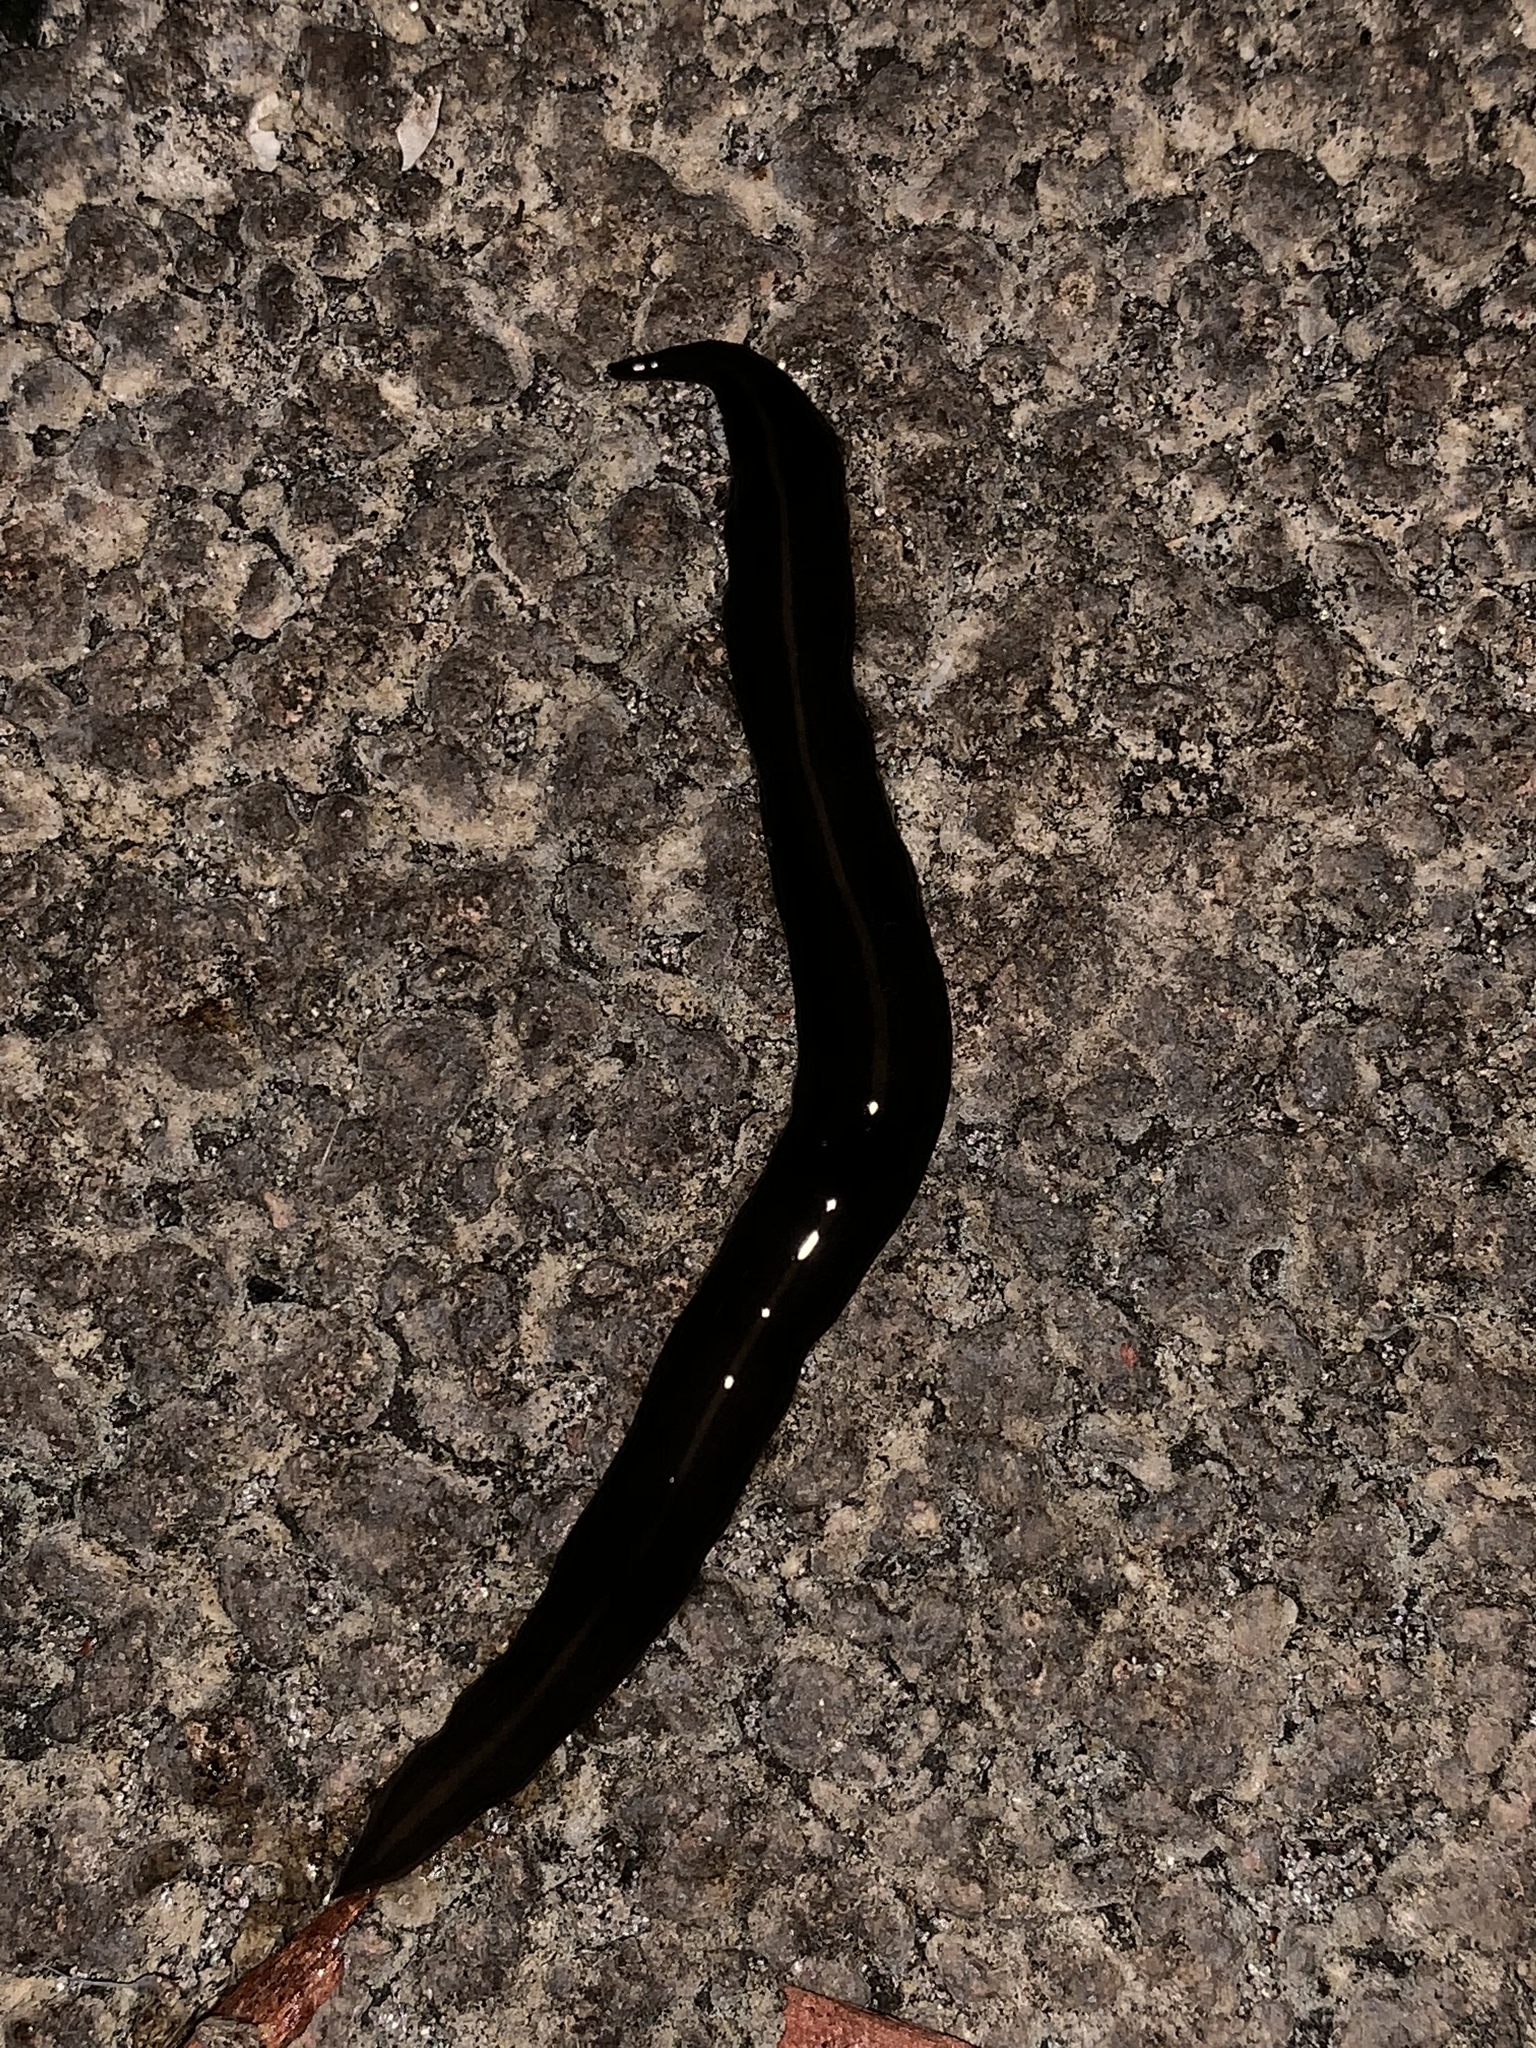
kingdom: Animalia
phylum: Platyhelminthes
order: Tricladida
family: Geoplanidae
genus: Platydemus
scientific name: Platydemus manokwari
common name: New guinea flatworm
